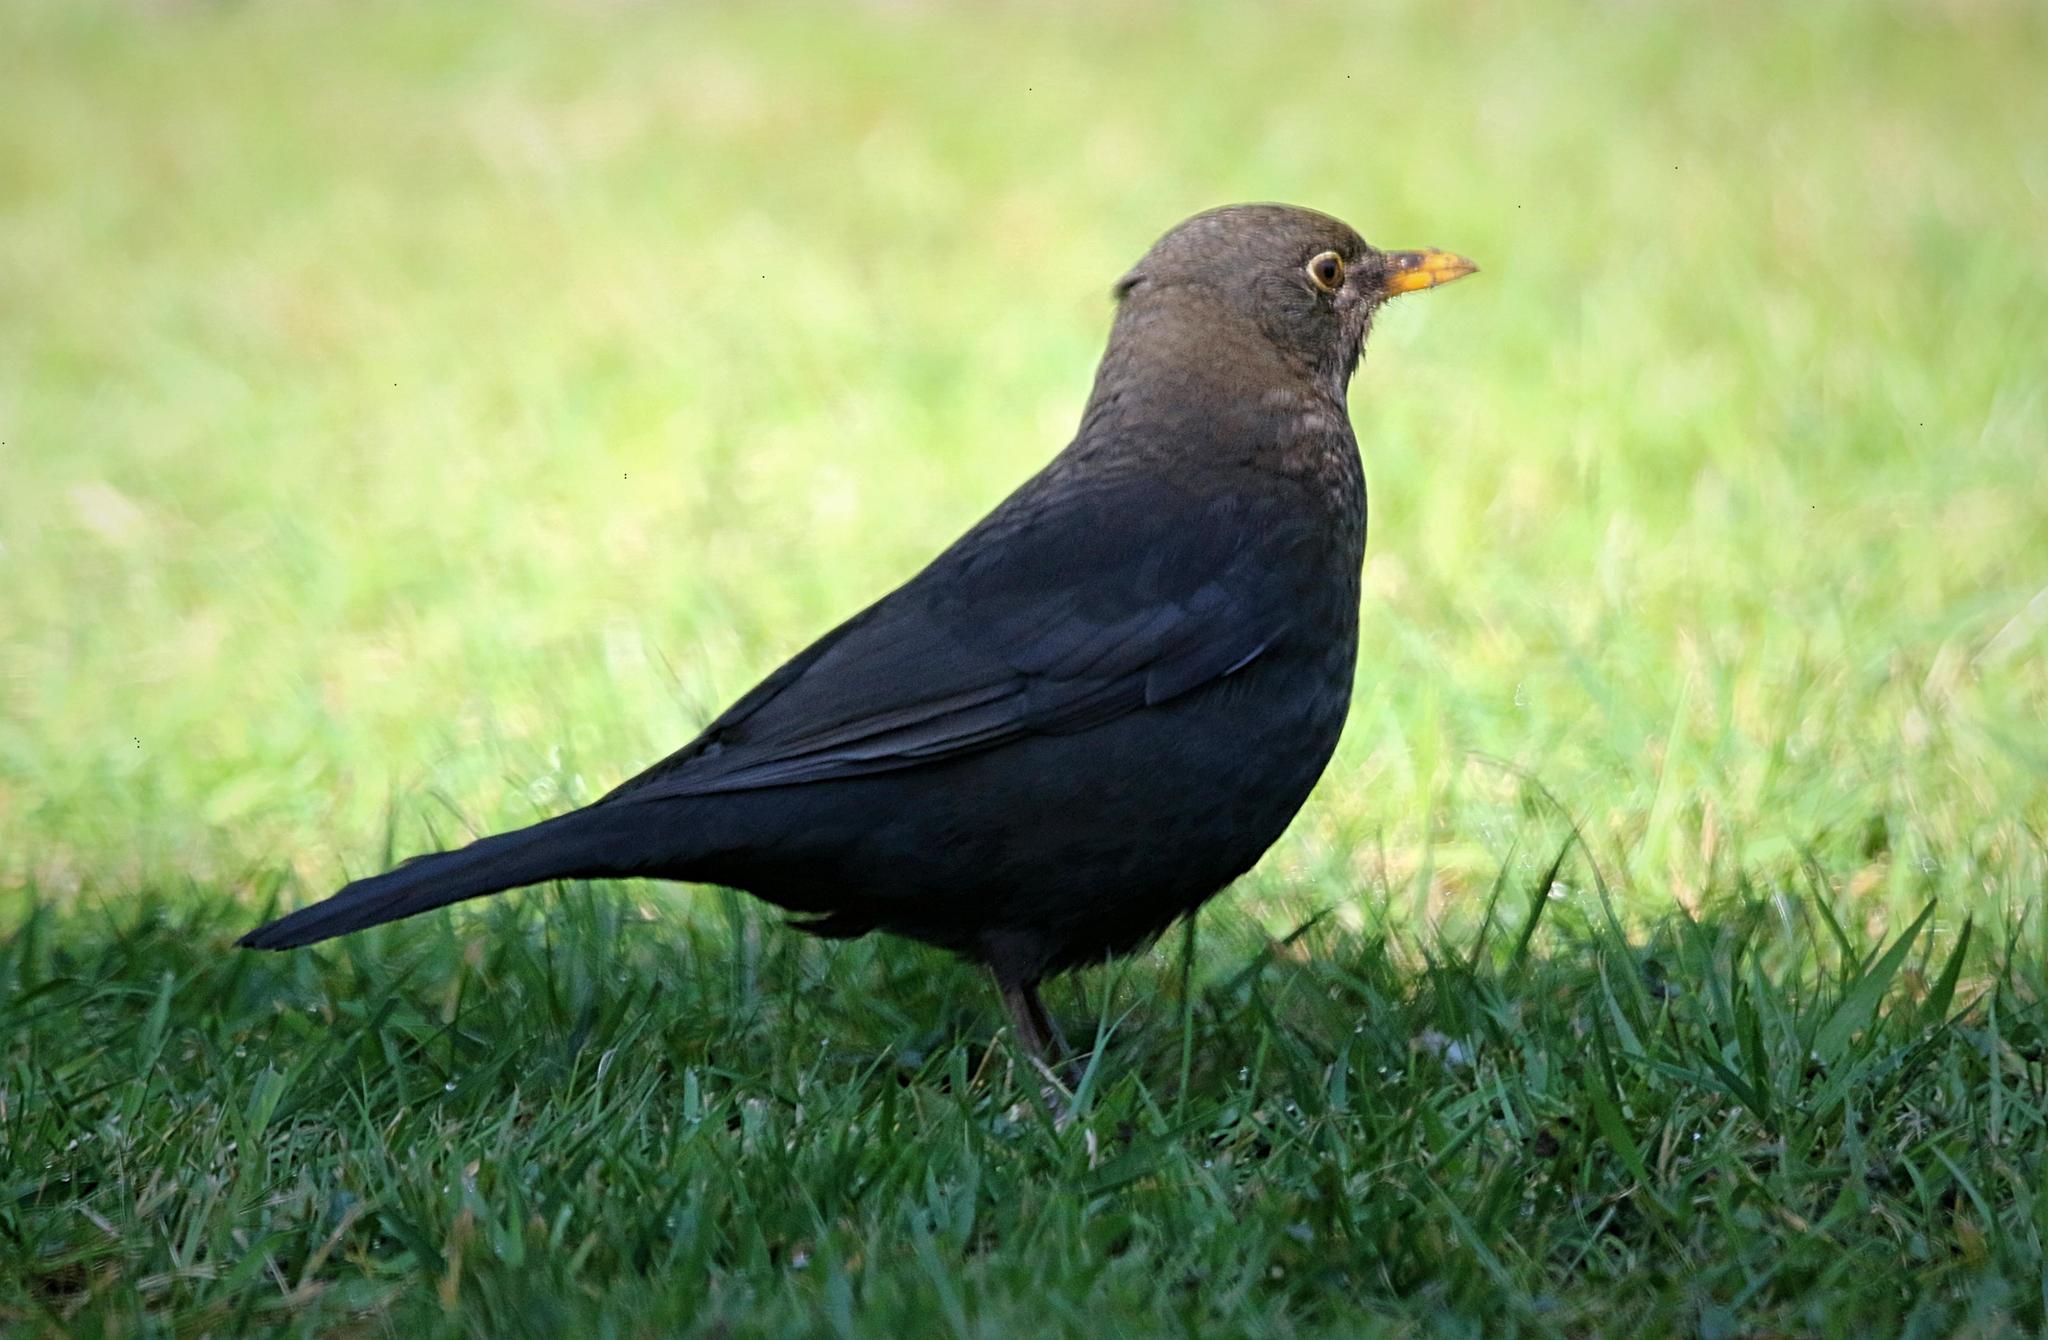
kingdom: Animalia
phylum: Chordata
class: Aves
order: Passeriformes
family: Turdidae
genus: Turdus
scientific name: Turdus merula
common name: Common blackbird
